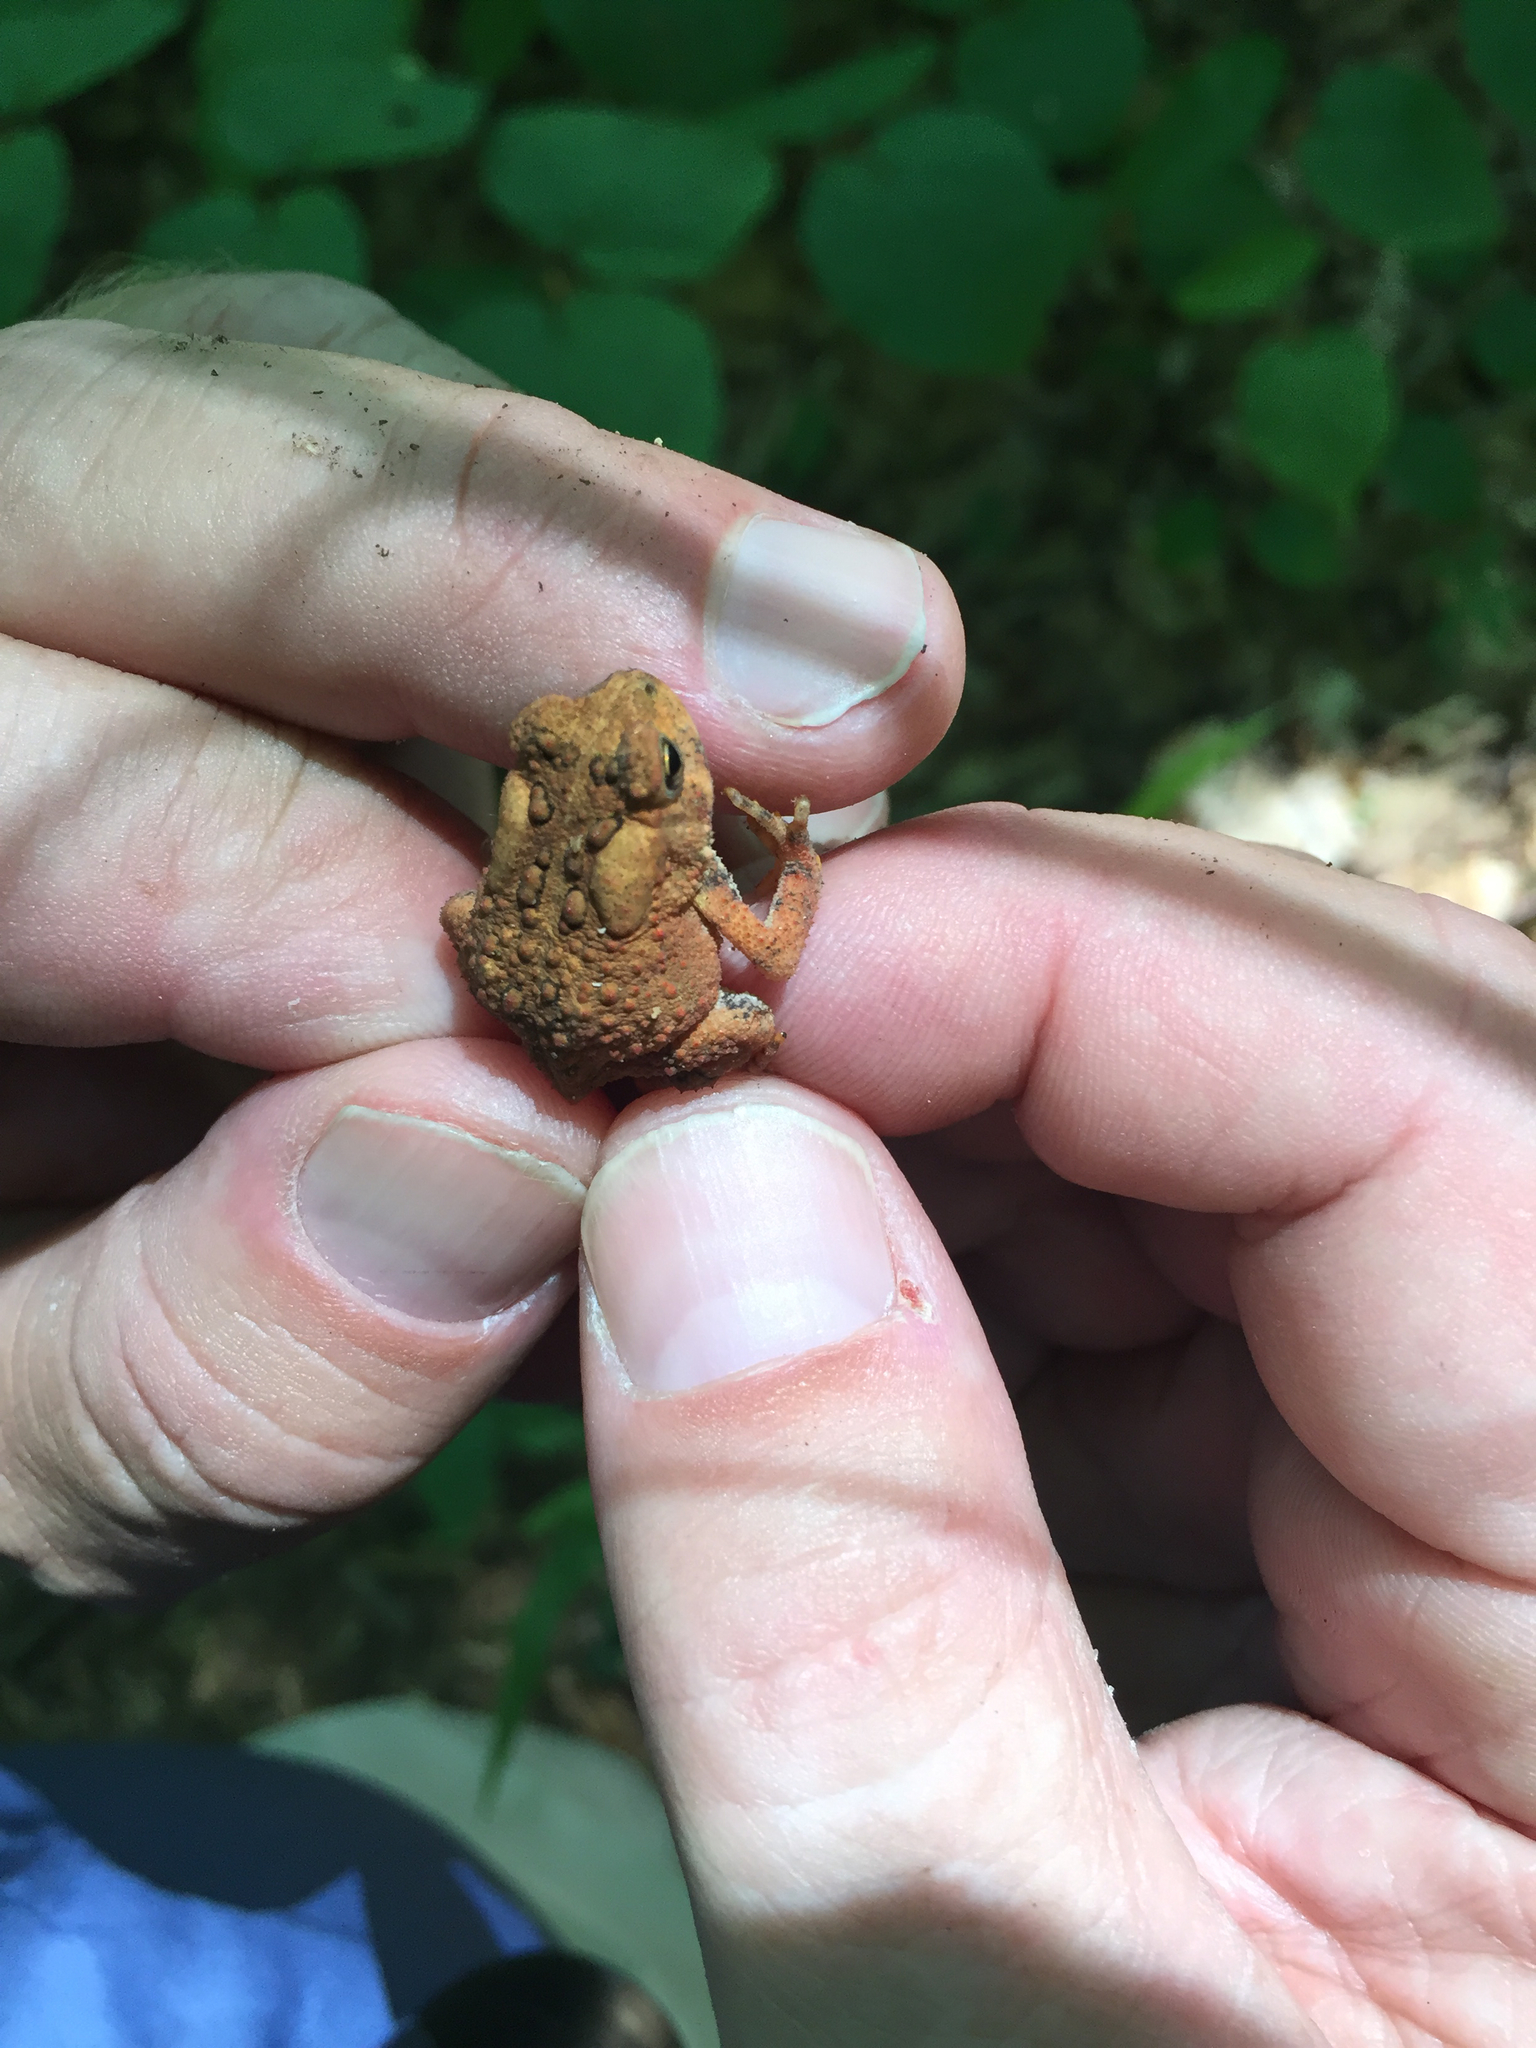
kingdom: Animalia
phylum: Chordata
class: Amphibia
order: Anura
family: Bufonidae
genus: Anaxyrus
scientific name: Anaxyrus americanus
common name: American toad
